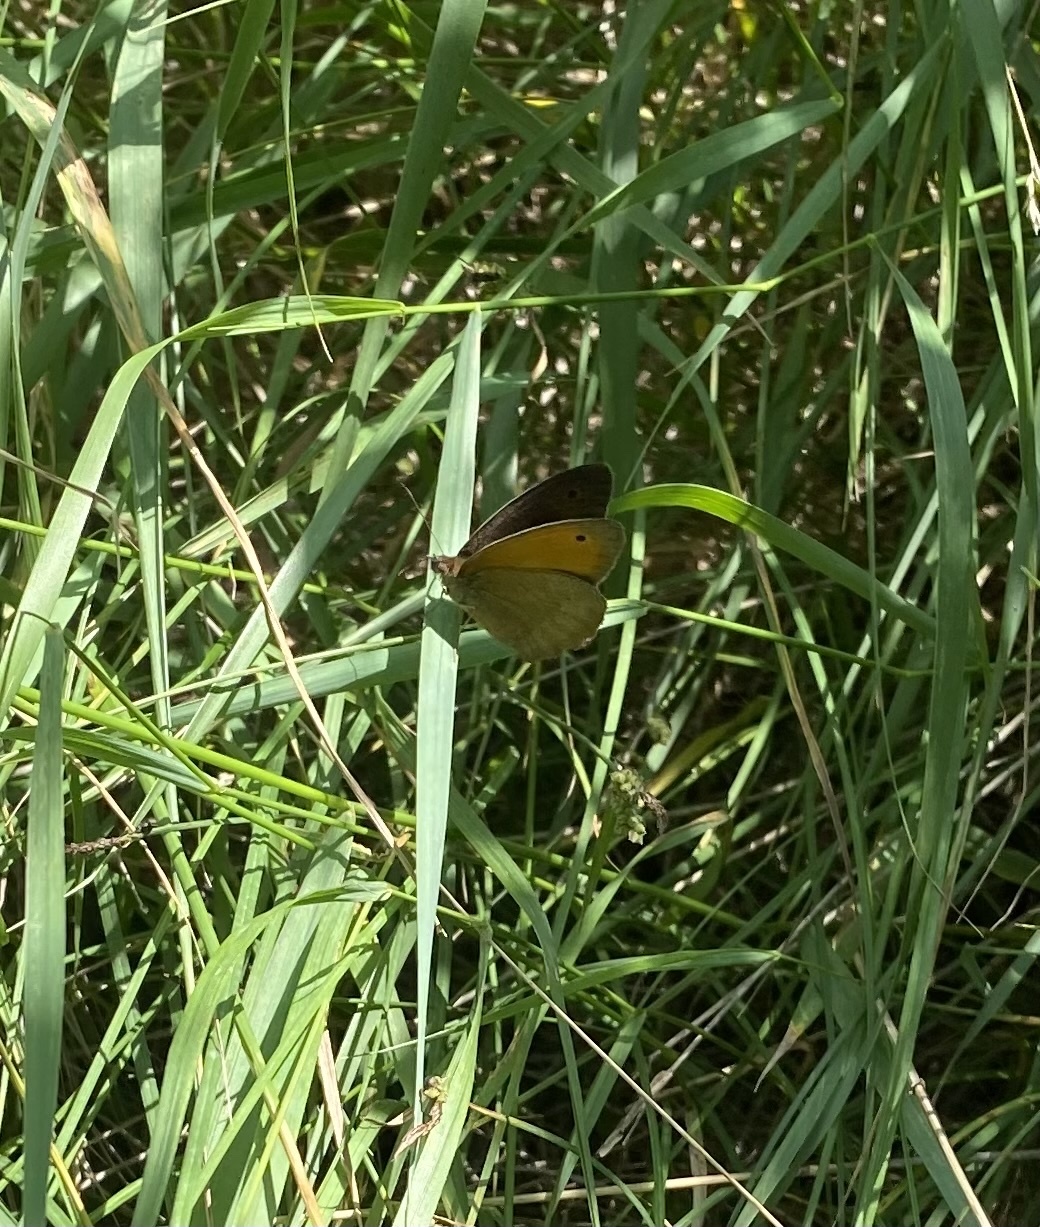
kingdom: Animalia
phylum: Arthropoda
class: Insecta
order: Lepidoptera
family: Nymphalidae
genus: Maniola
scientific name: Maniola jurtina
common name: Meadow brown
